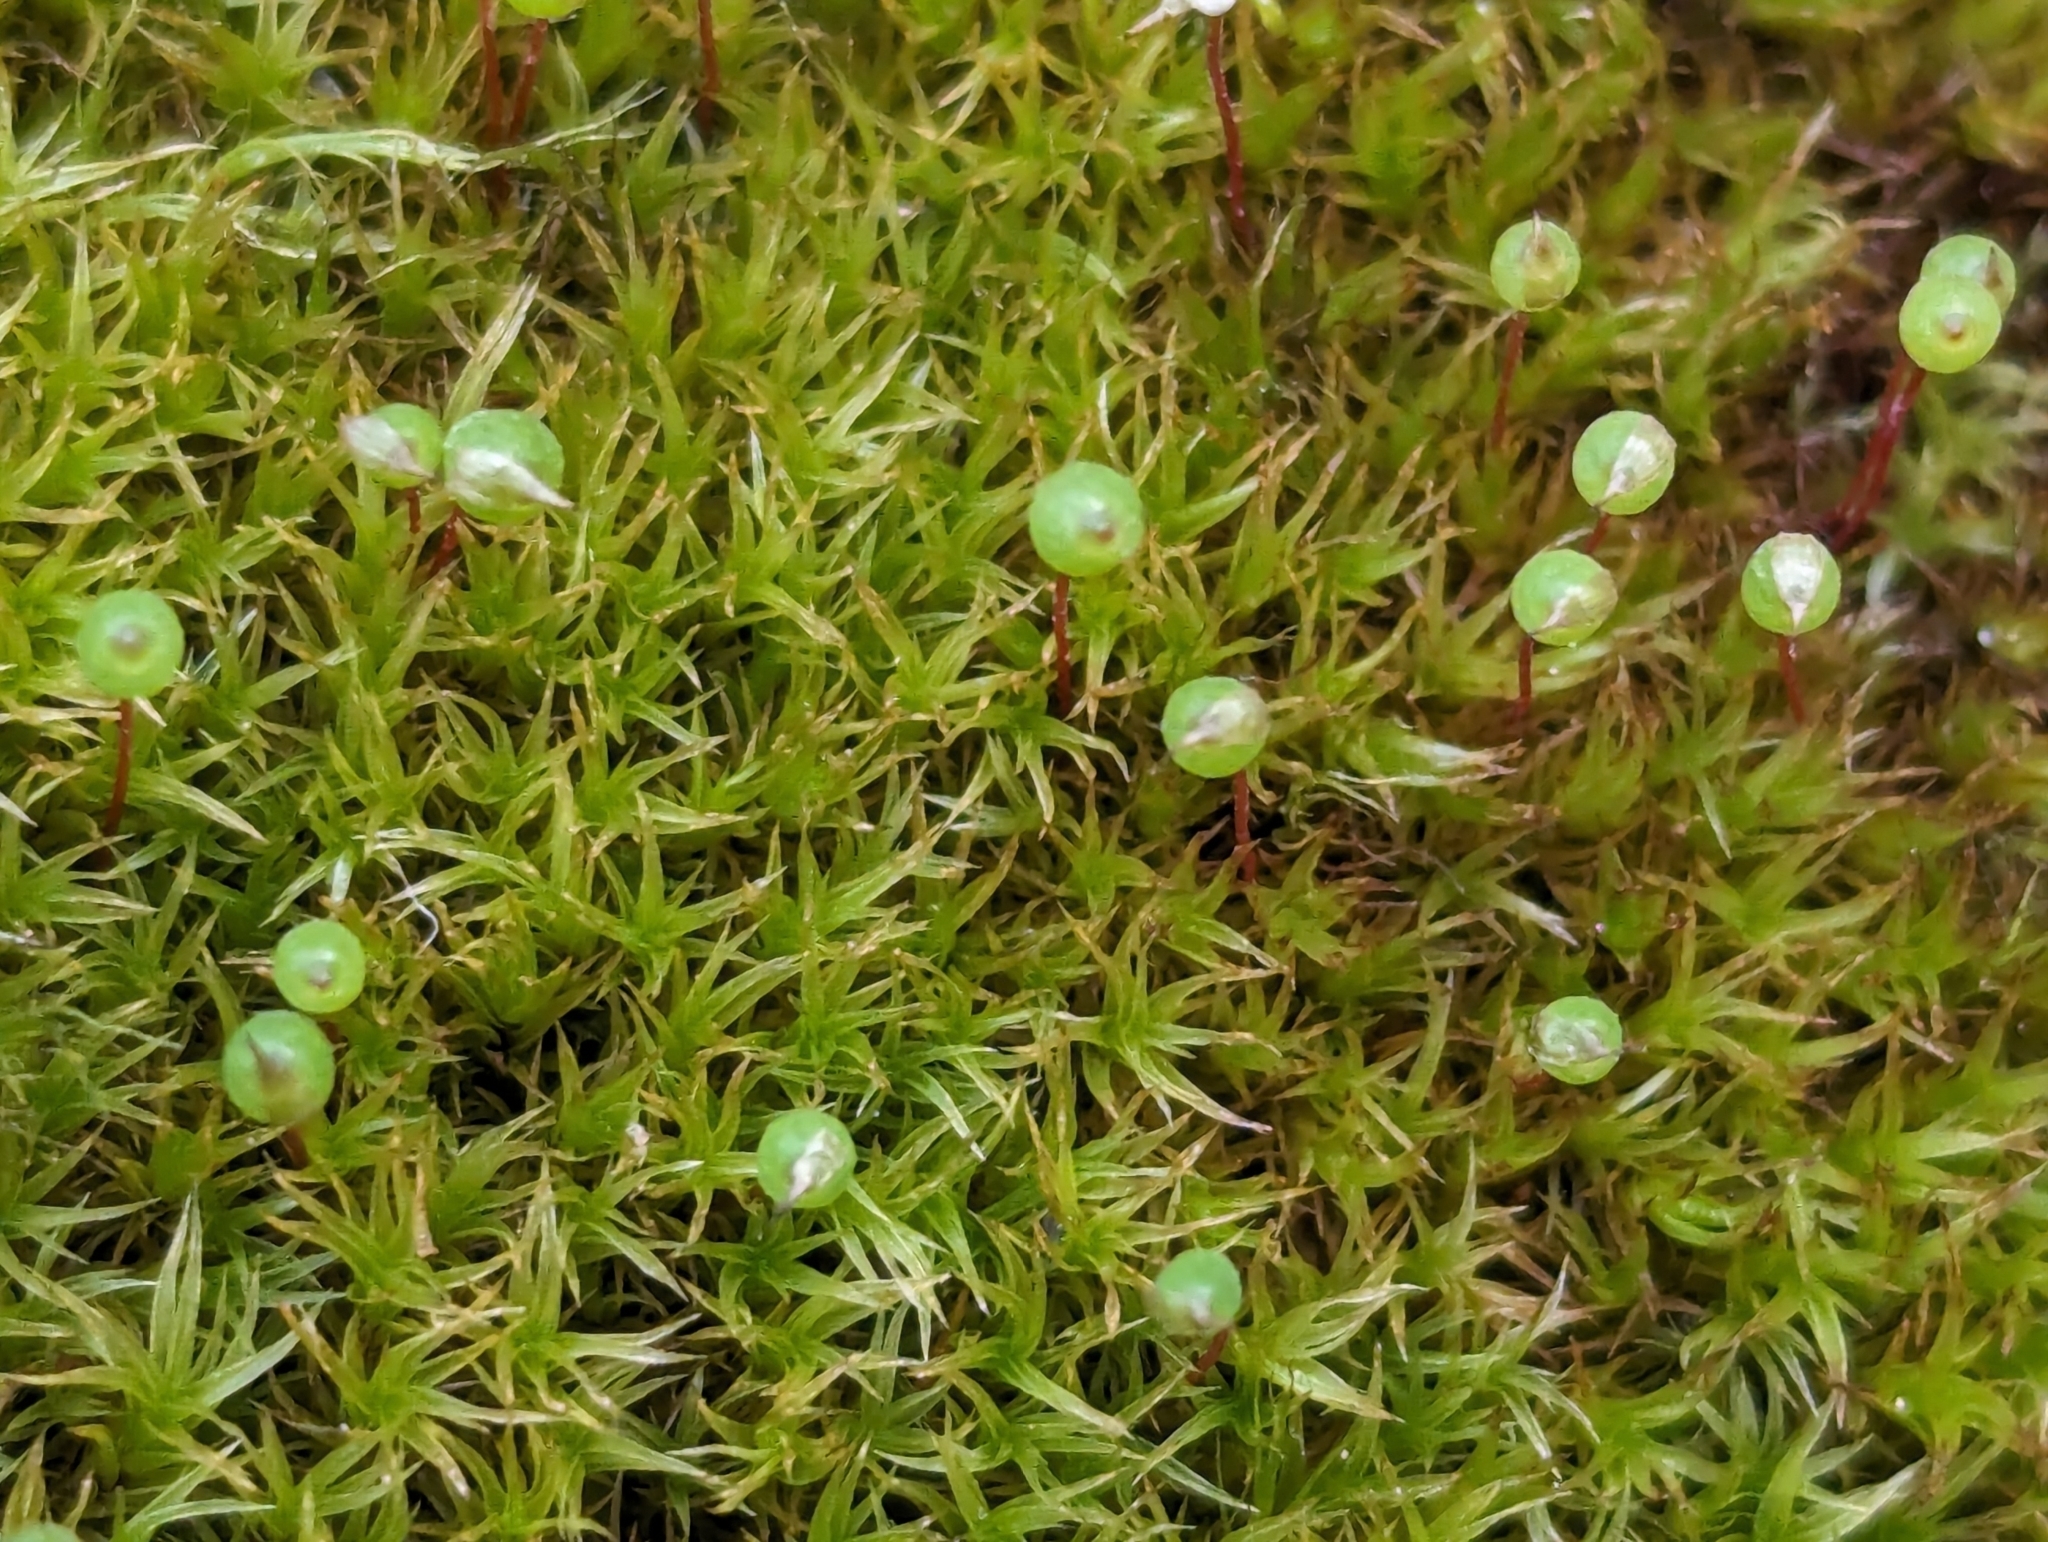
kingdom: Plantae
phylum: Bryophyta
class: Bryopsida
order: Bartramiales
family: Bartramiaceae
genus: Plagiopus
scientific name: Plagiopus oederianus
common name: Oeder's apple moss
